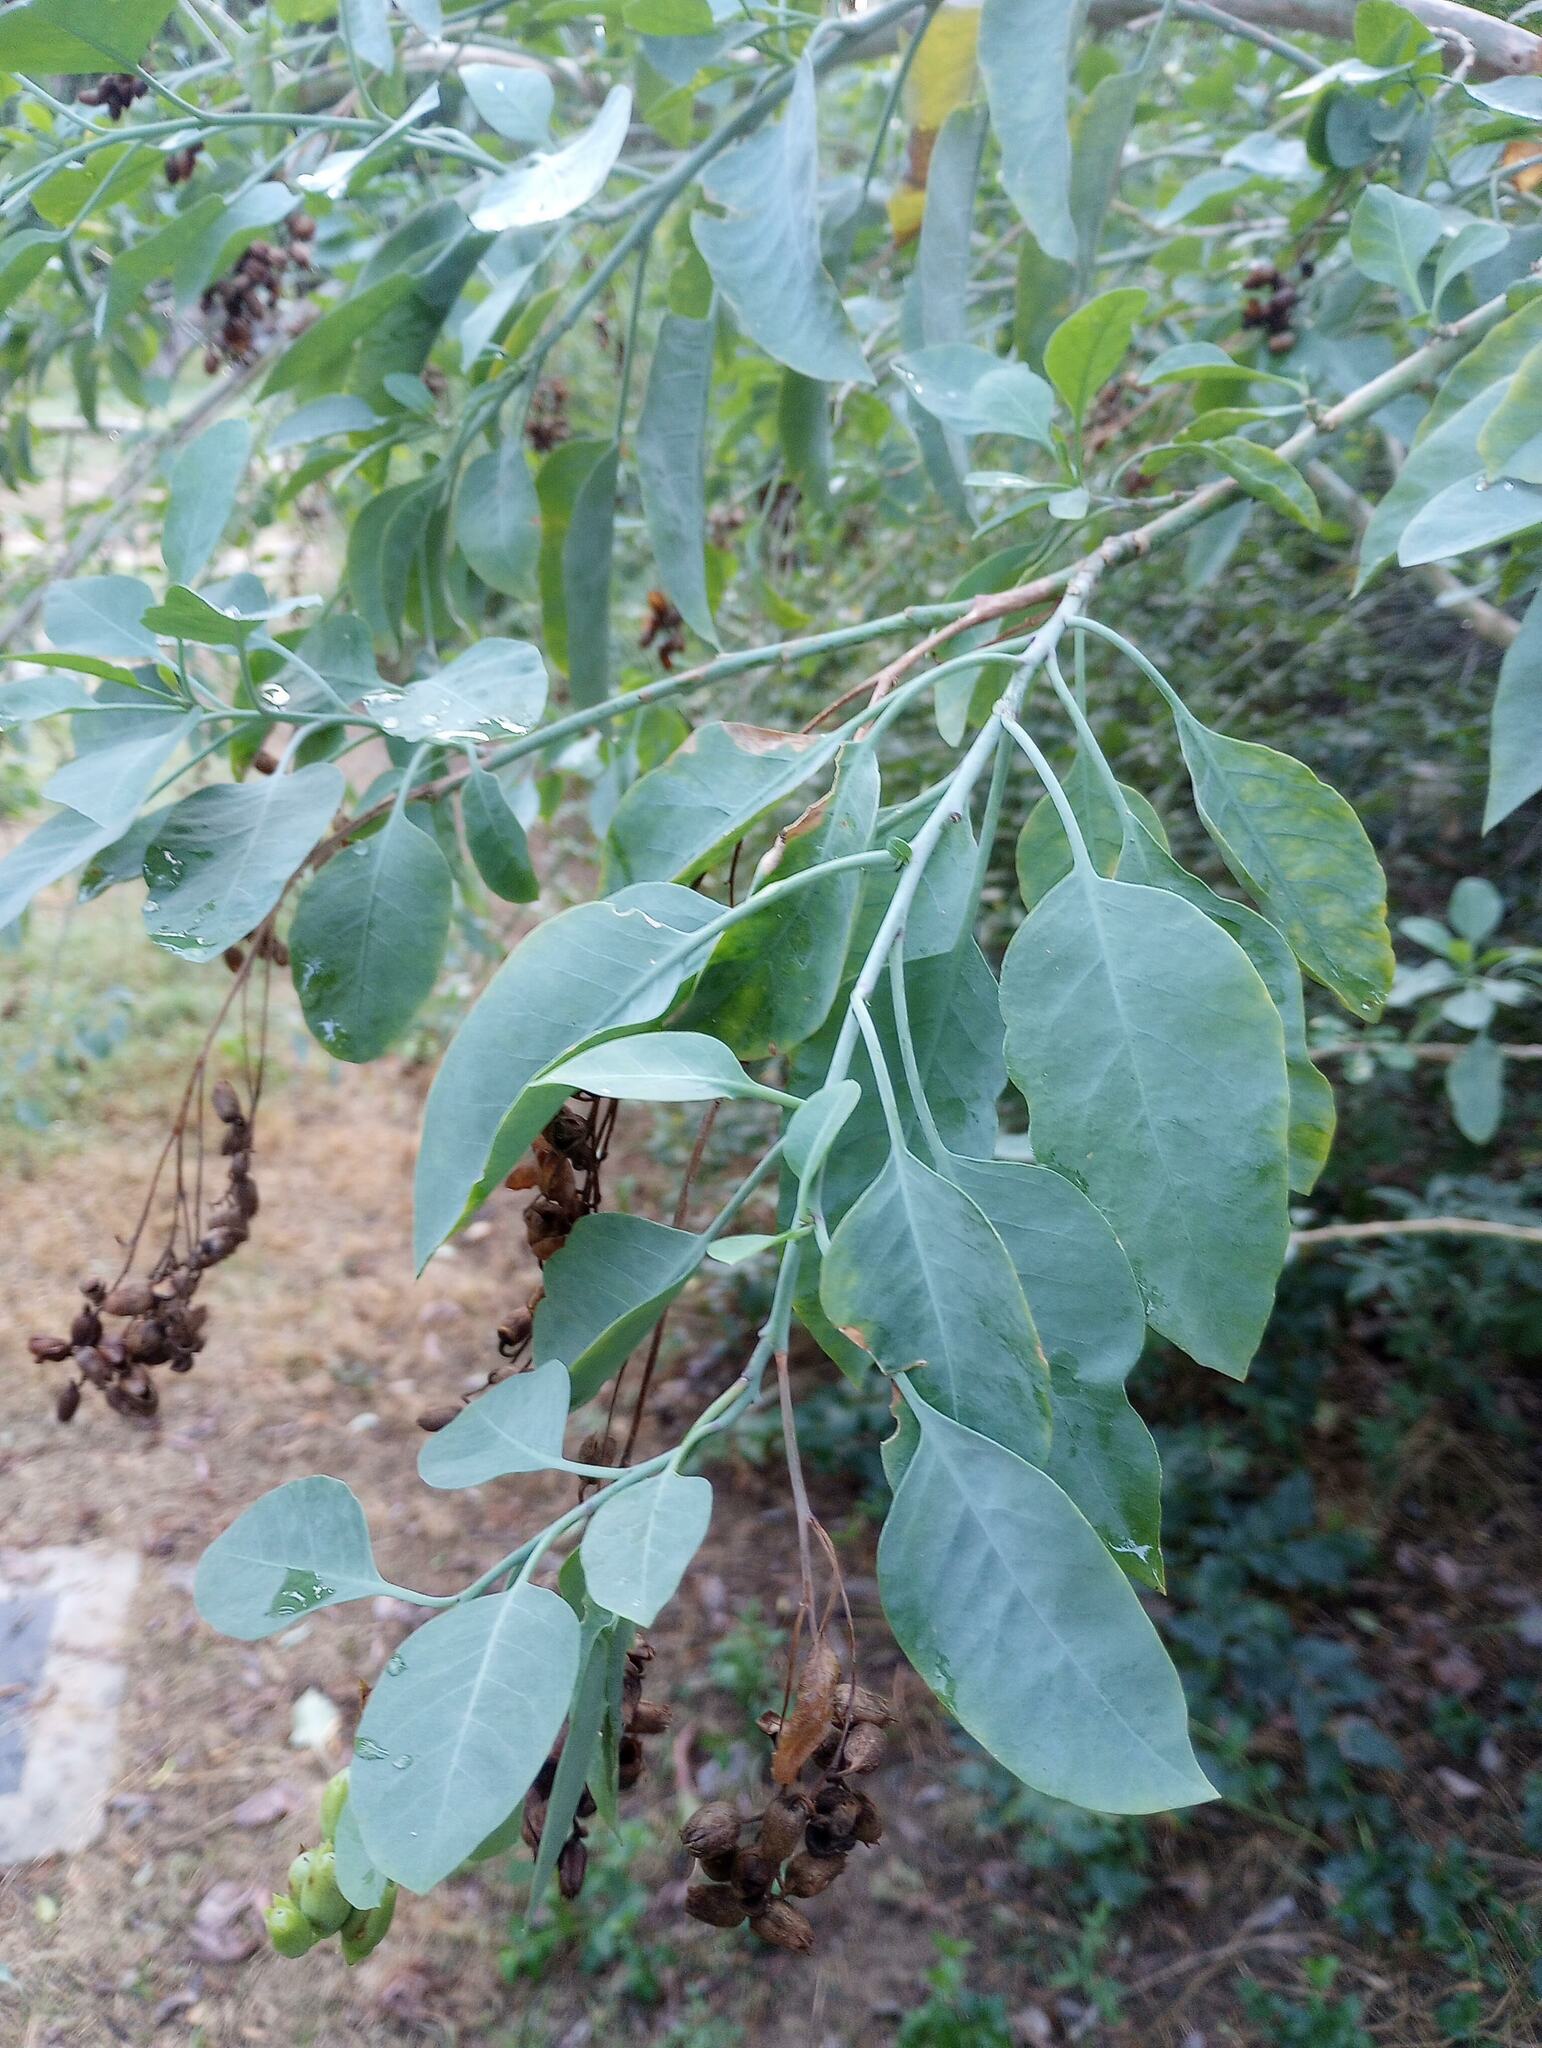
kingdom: Plantae
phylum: Tracheophyta
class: Magnoliopsida
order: Solanales
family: Solanaceae
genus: Nicotiana
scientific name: Nicotiana glauca
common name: Tree tobacco
